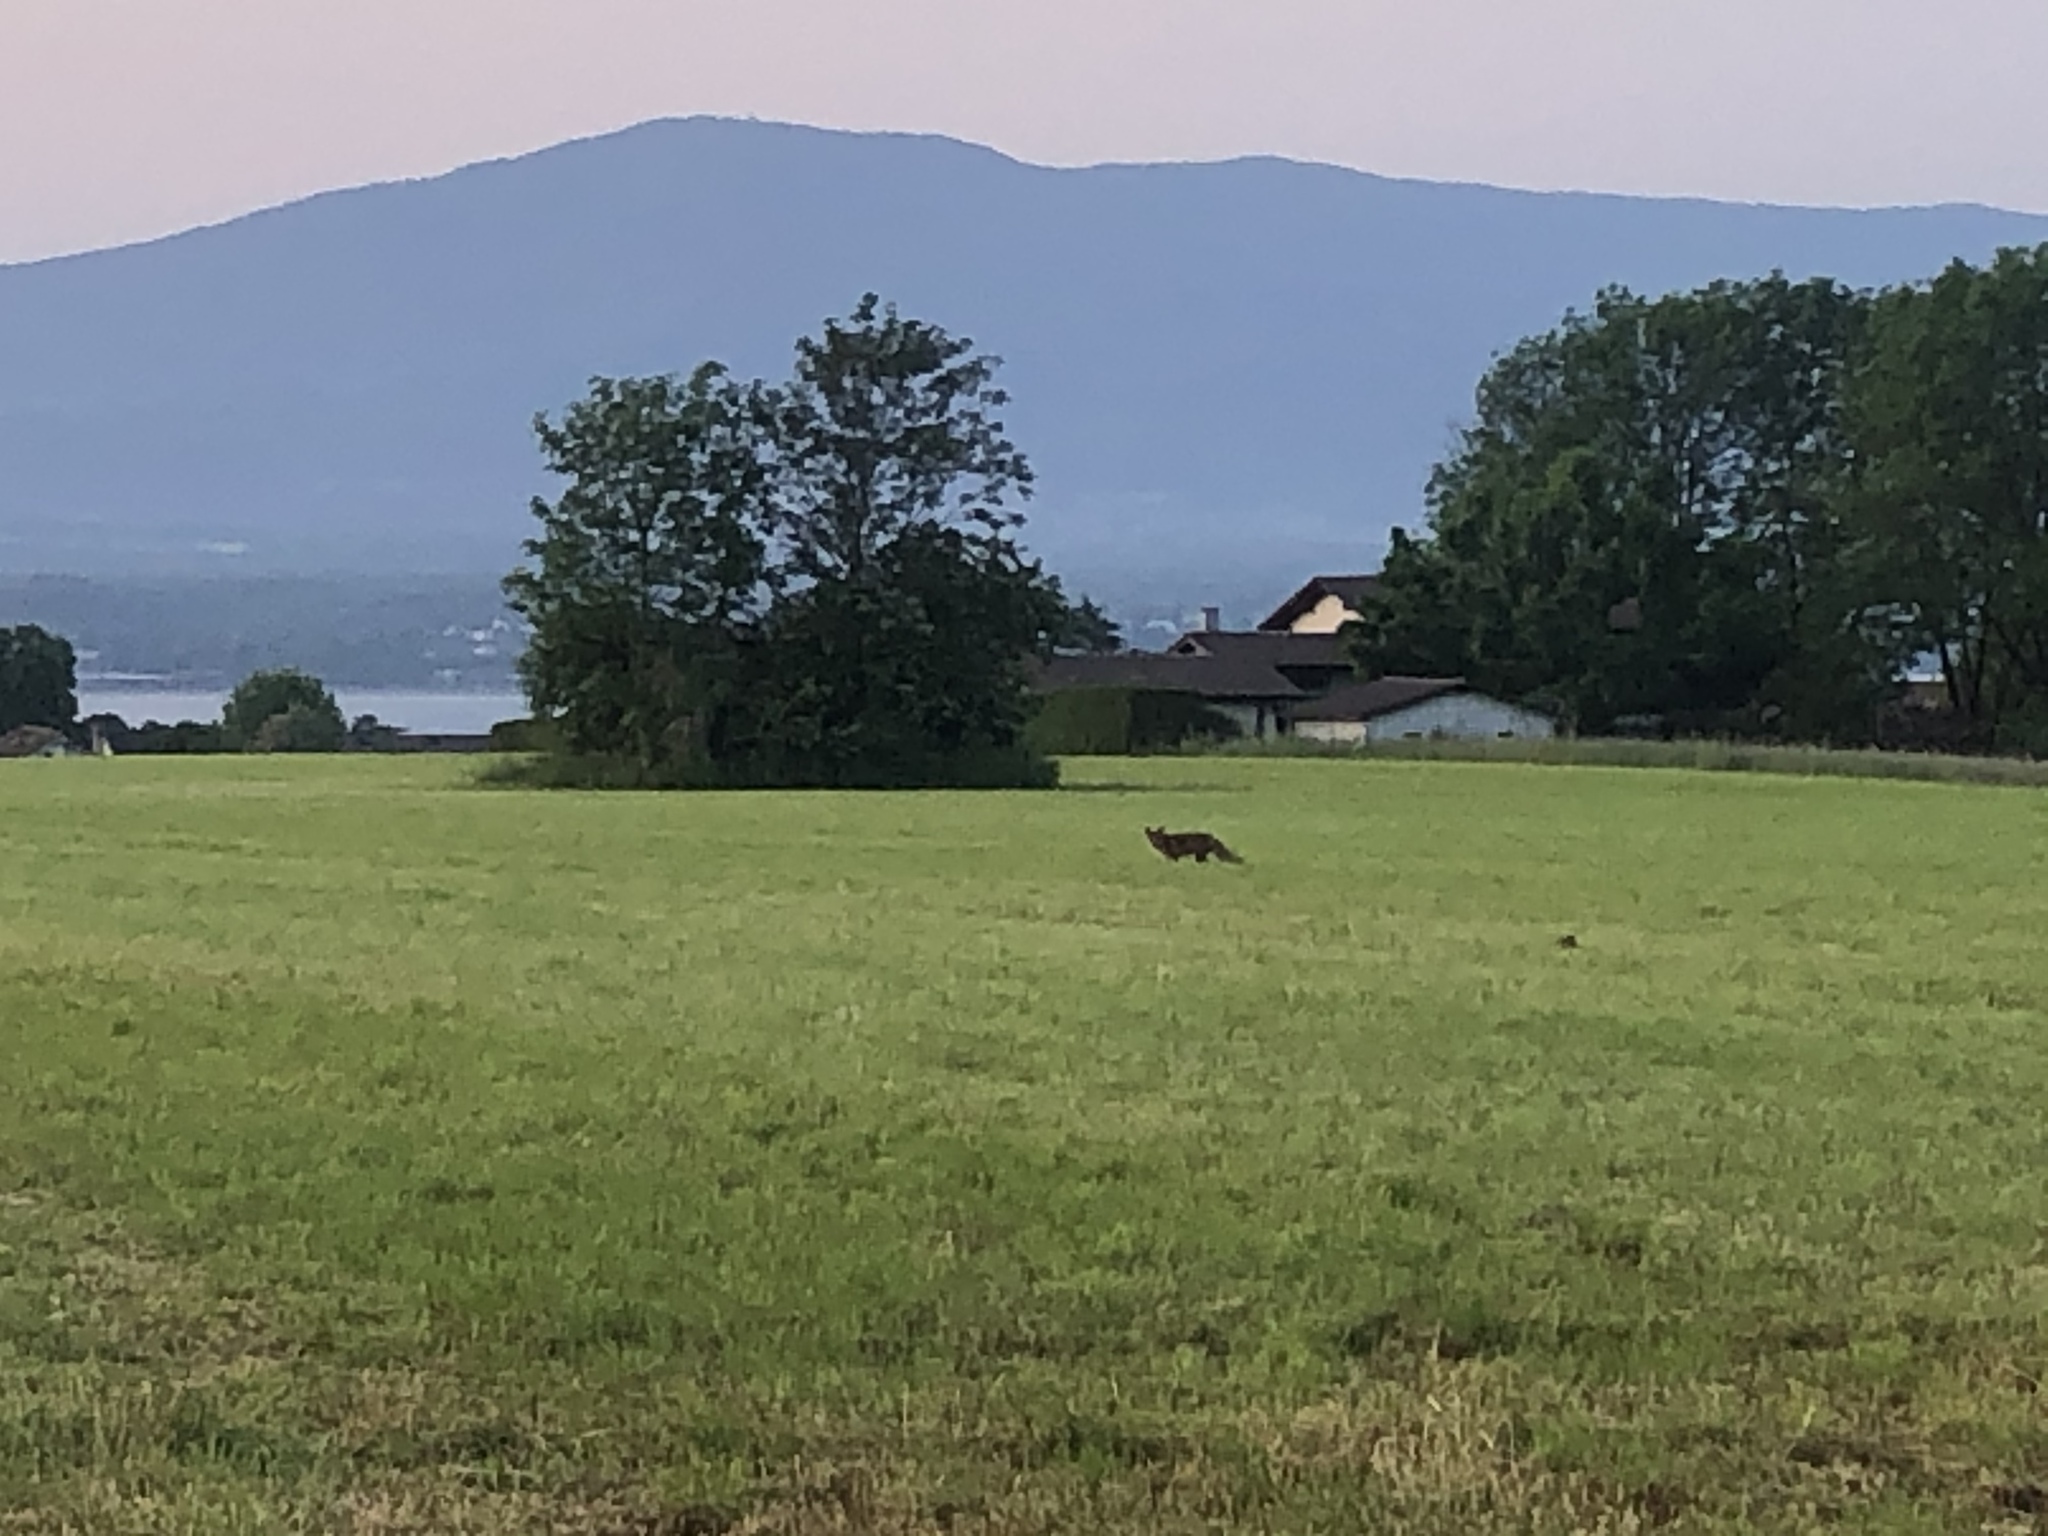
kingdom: Animalia
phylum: Chordata
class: Mammalia
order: Carnivora
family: Canidae
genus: Vulpes
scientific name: Vulpes vulpes
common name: Red fox
